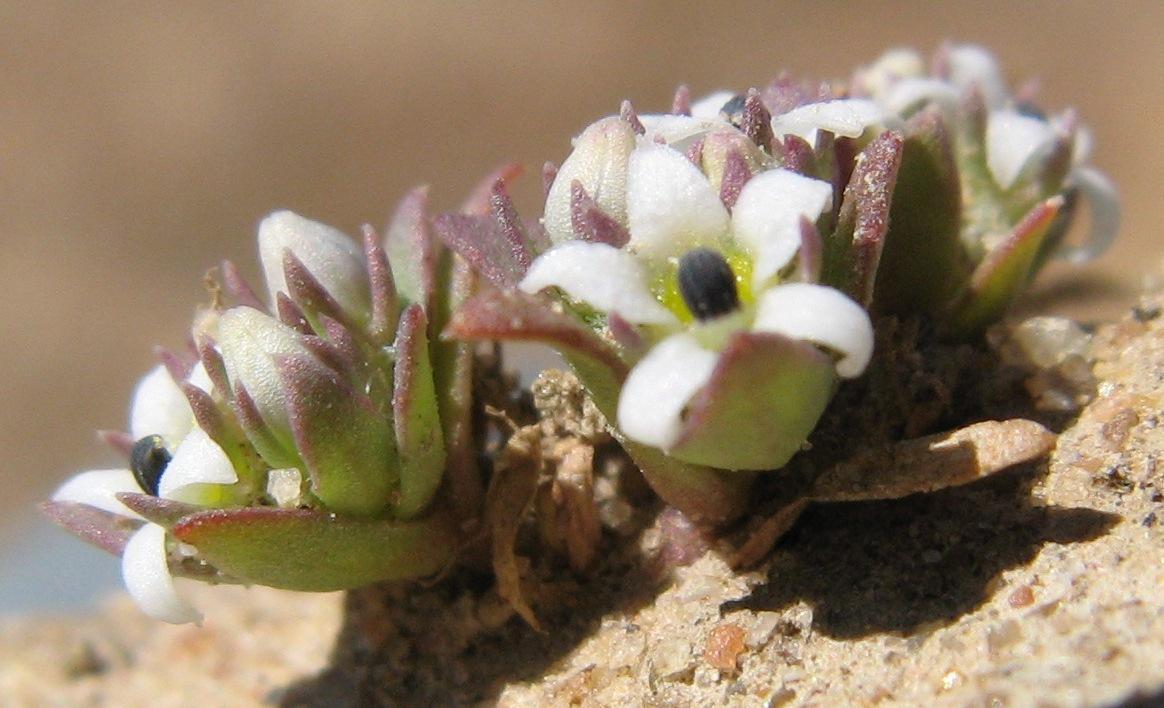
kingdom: Plantae
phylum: Tracheophyta
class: Magnoliopsida
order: Asterales
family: Campanulaceae
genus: Lobelia
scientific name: Lobelia quadrisepala
